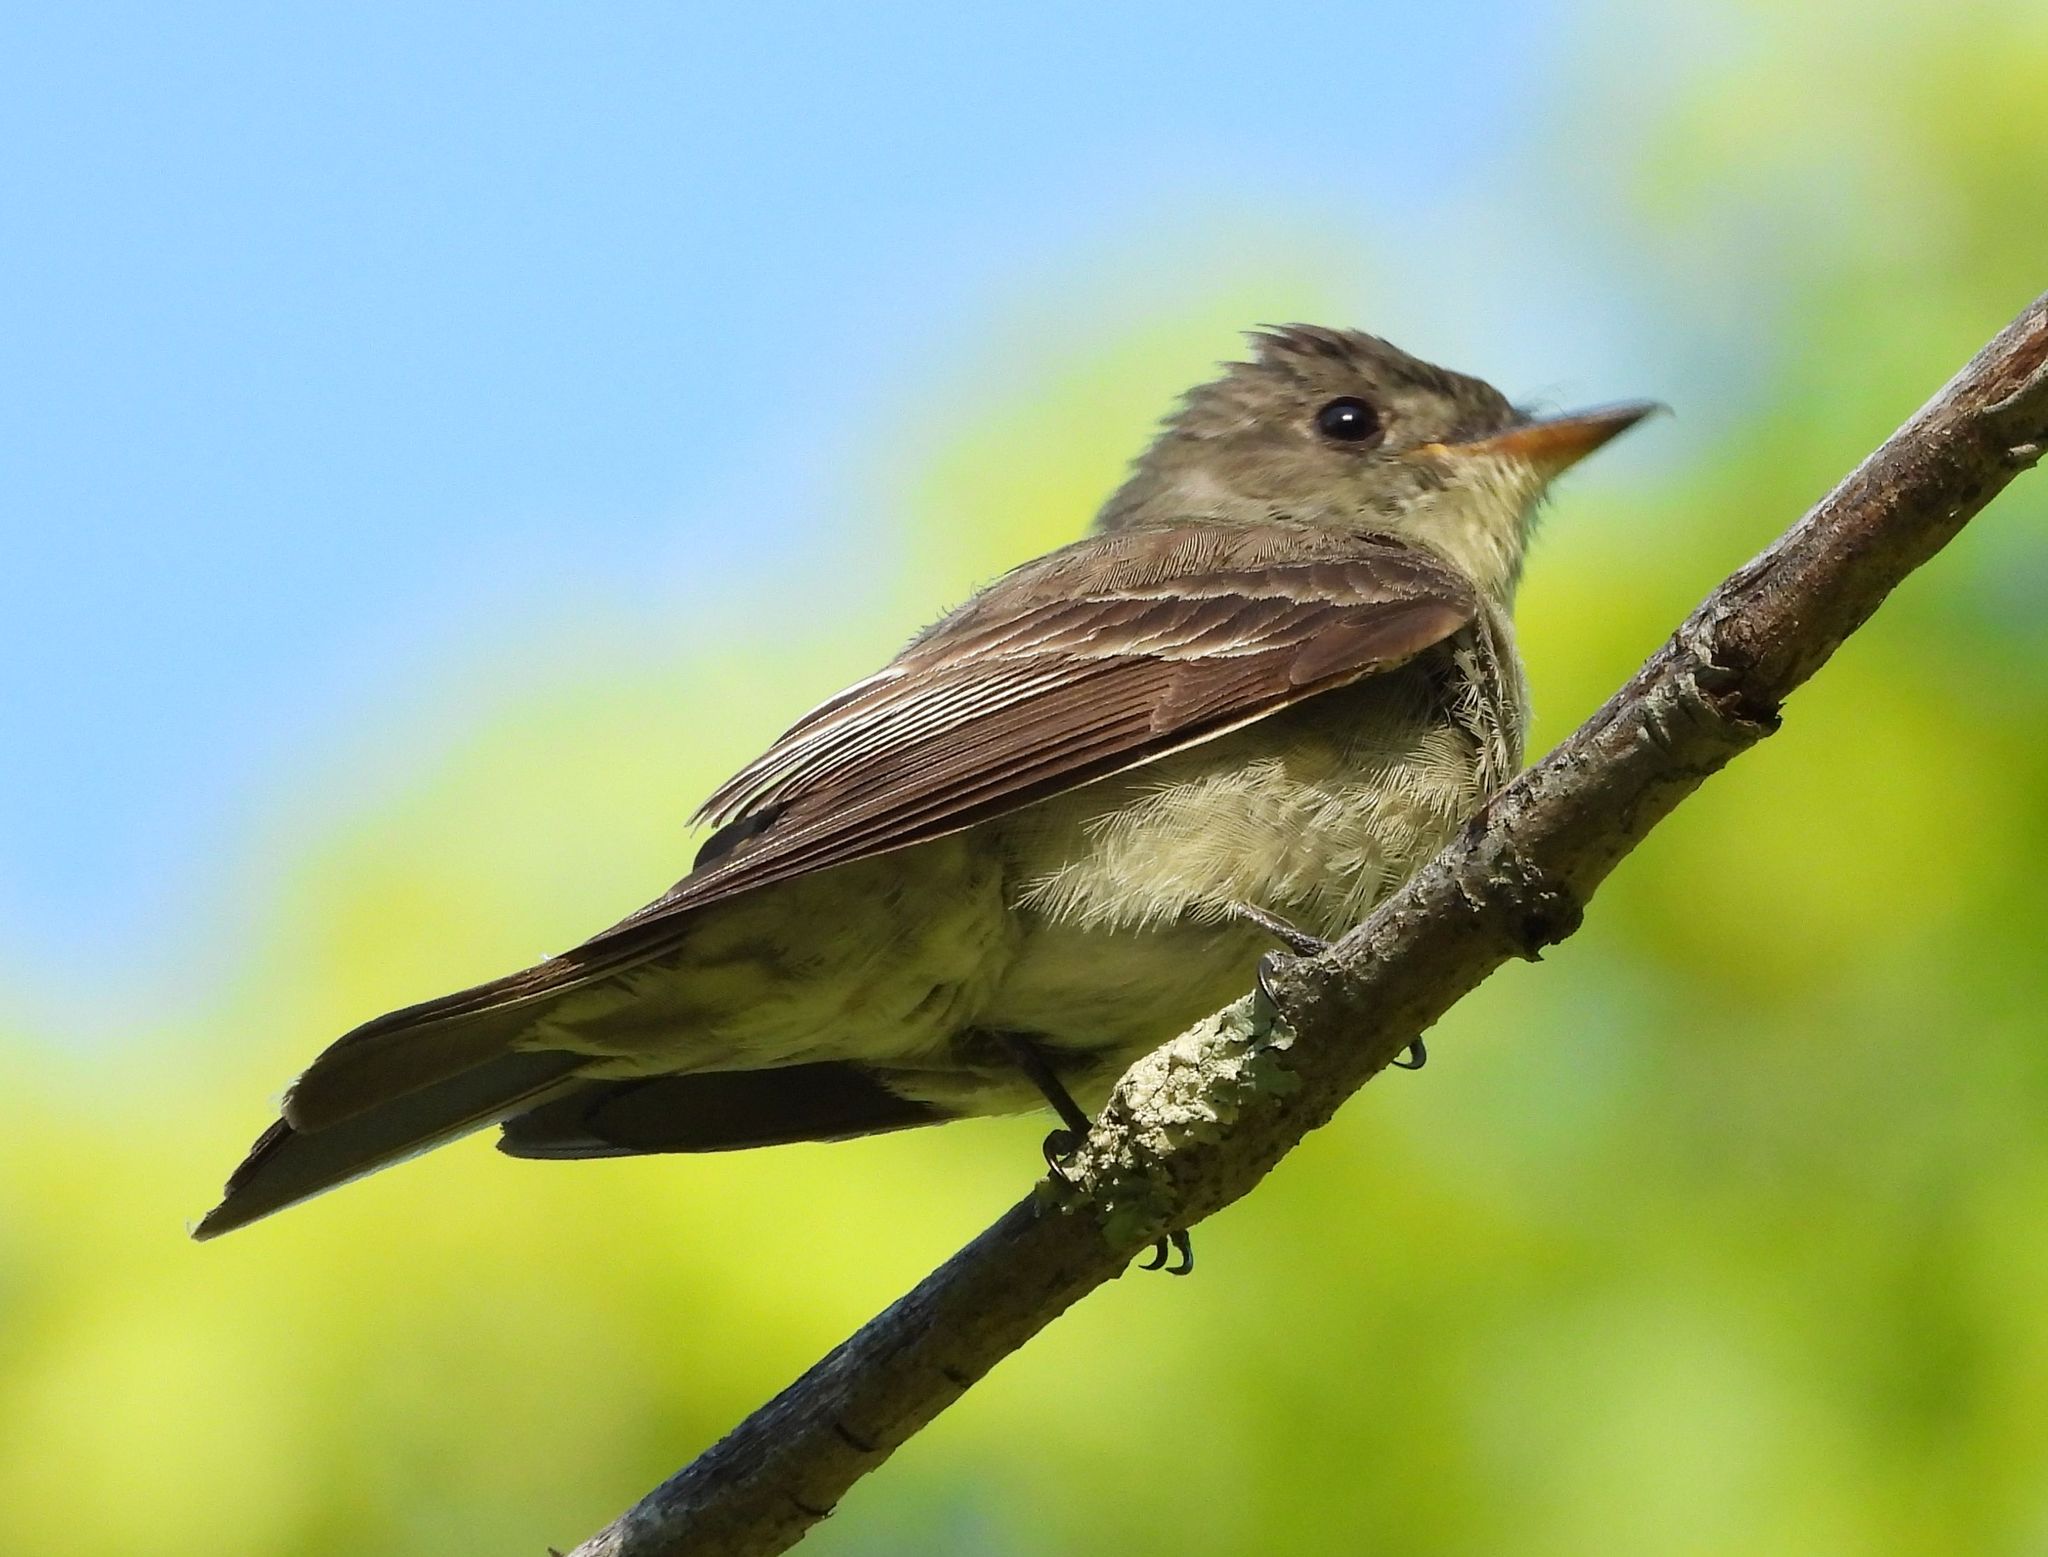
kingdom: Animalia
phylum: Chordata
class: Aves
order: Passeriformes
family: Tyrannidae
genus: Contopus
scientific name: Contopus virens
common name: Eastern wood-pewee
